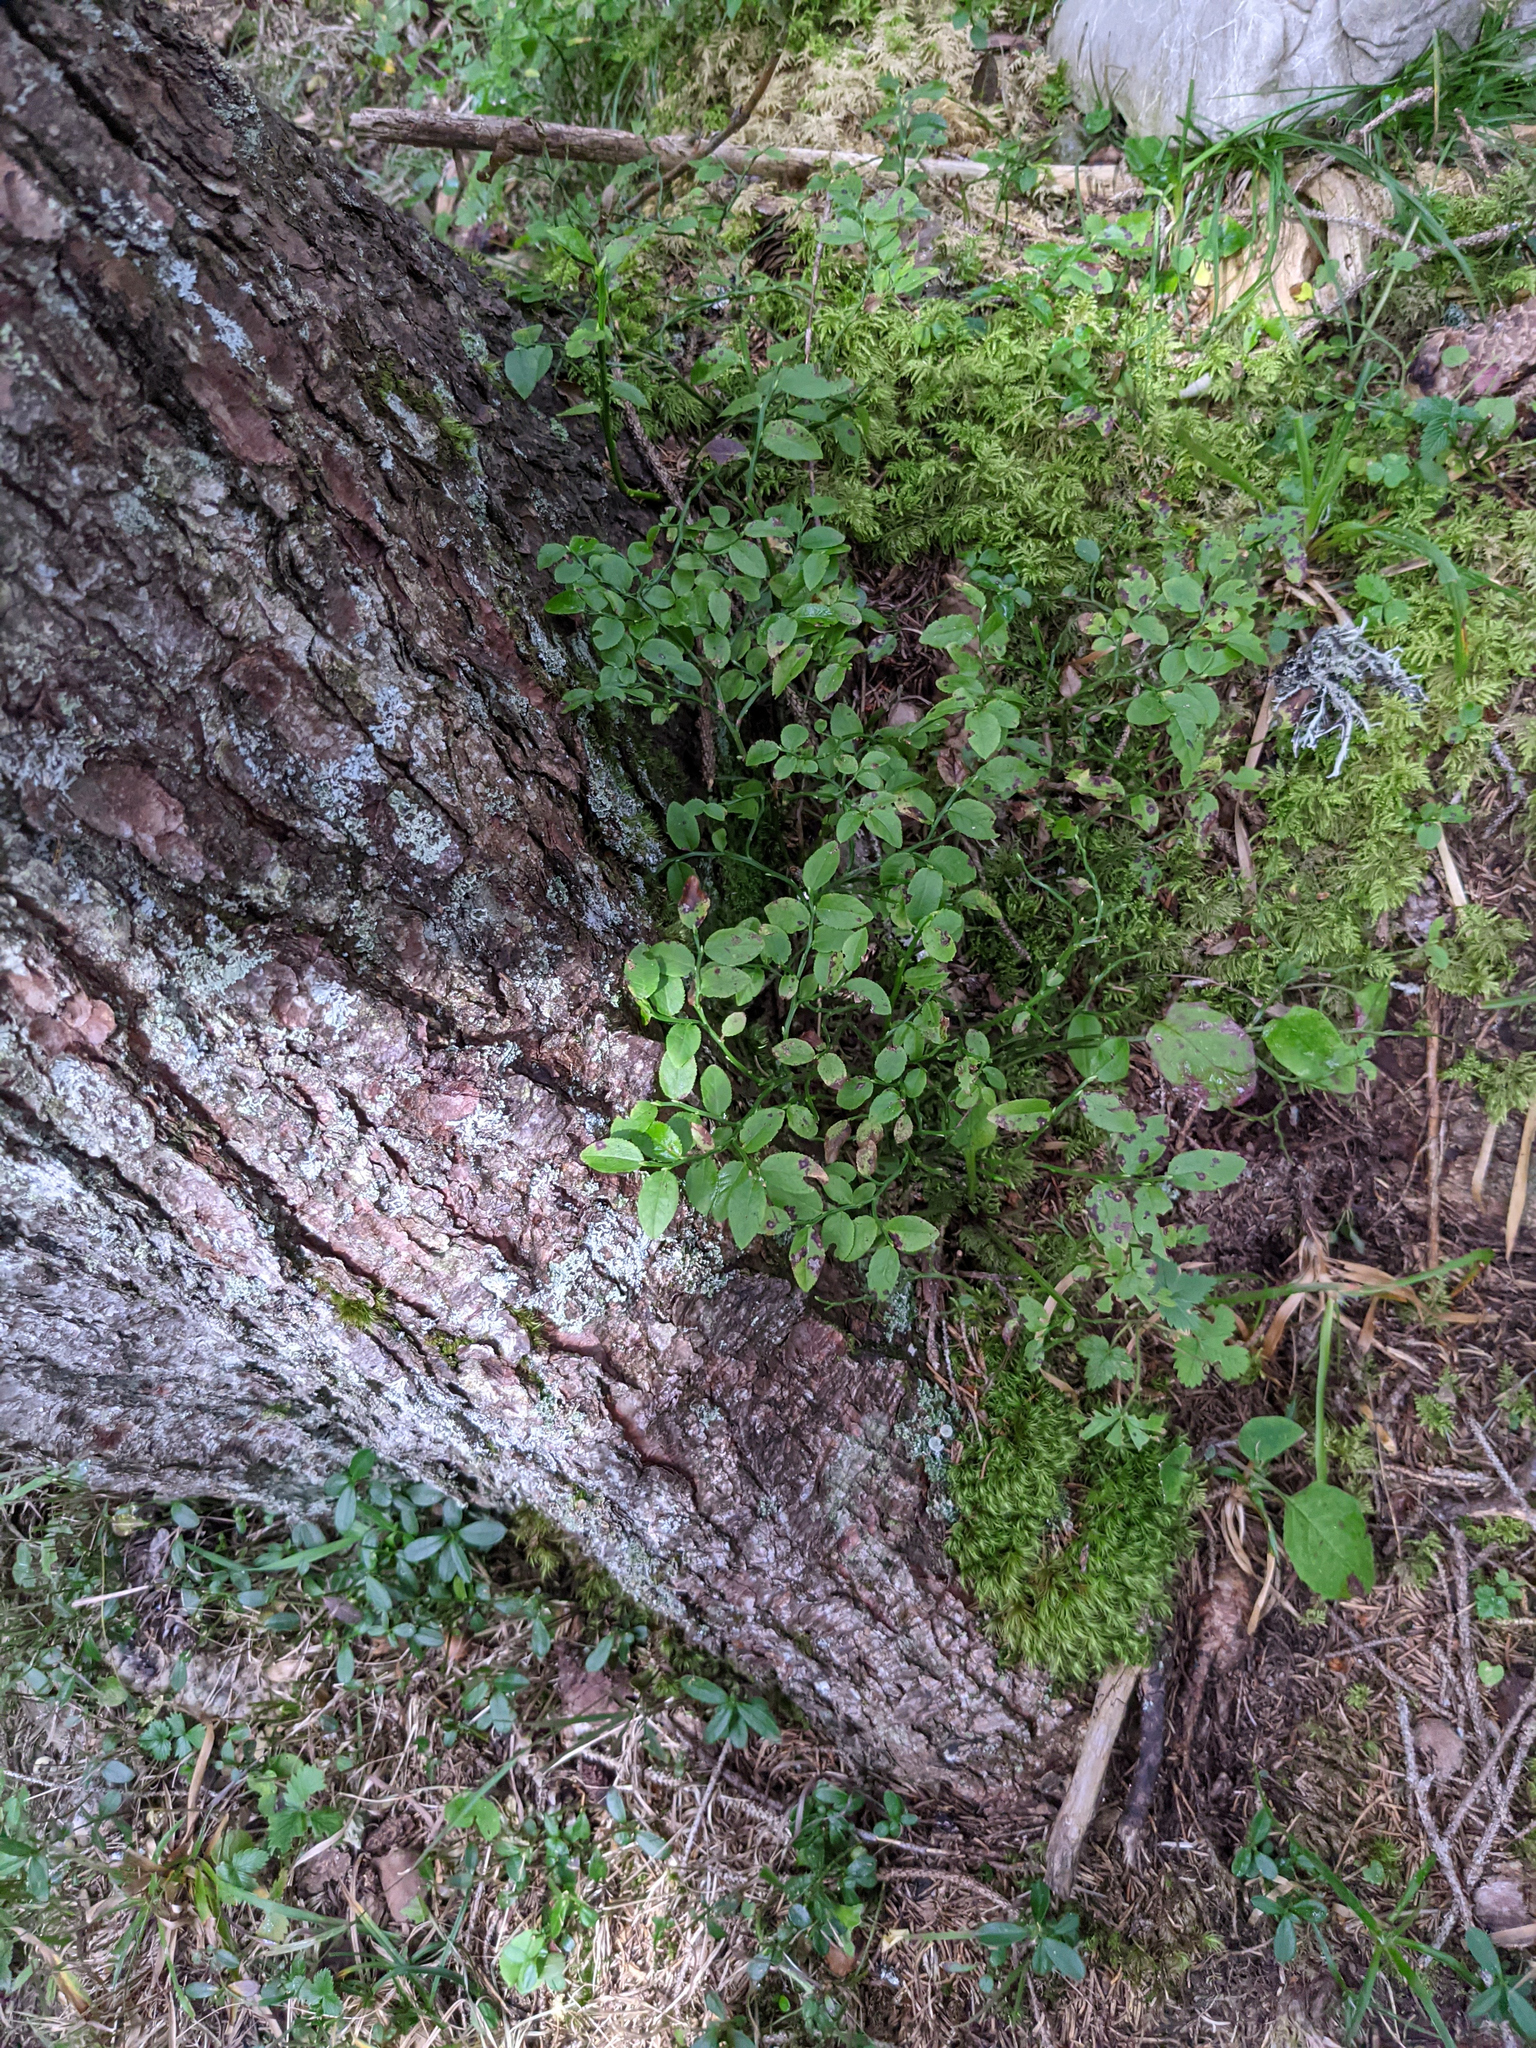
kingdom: Plantae
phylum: Tracheophyta
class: Magnoliopsida
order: Ericales
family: Ericaceae
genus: Vaccinium
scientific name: Vaccinium myrtillus
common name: Bilberry
